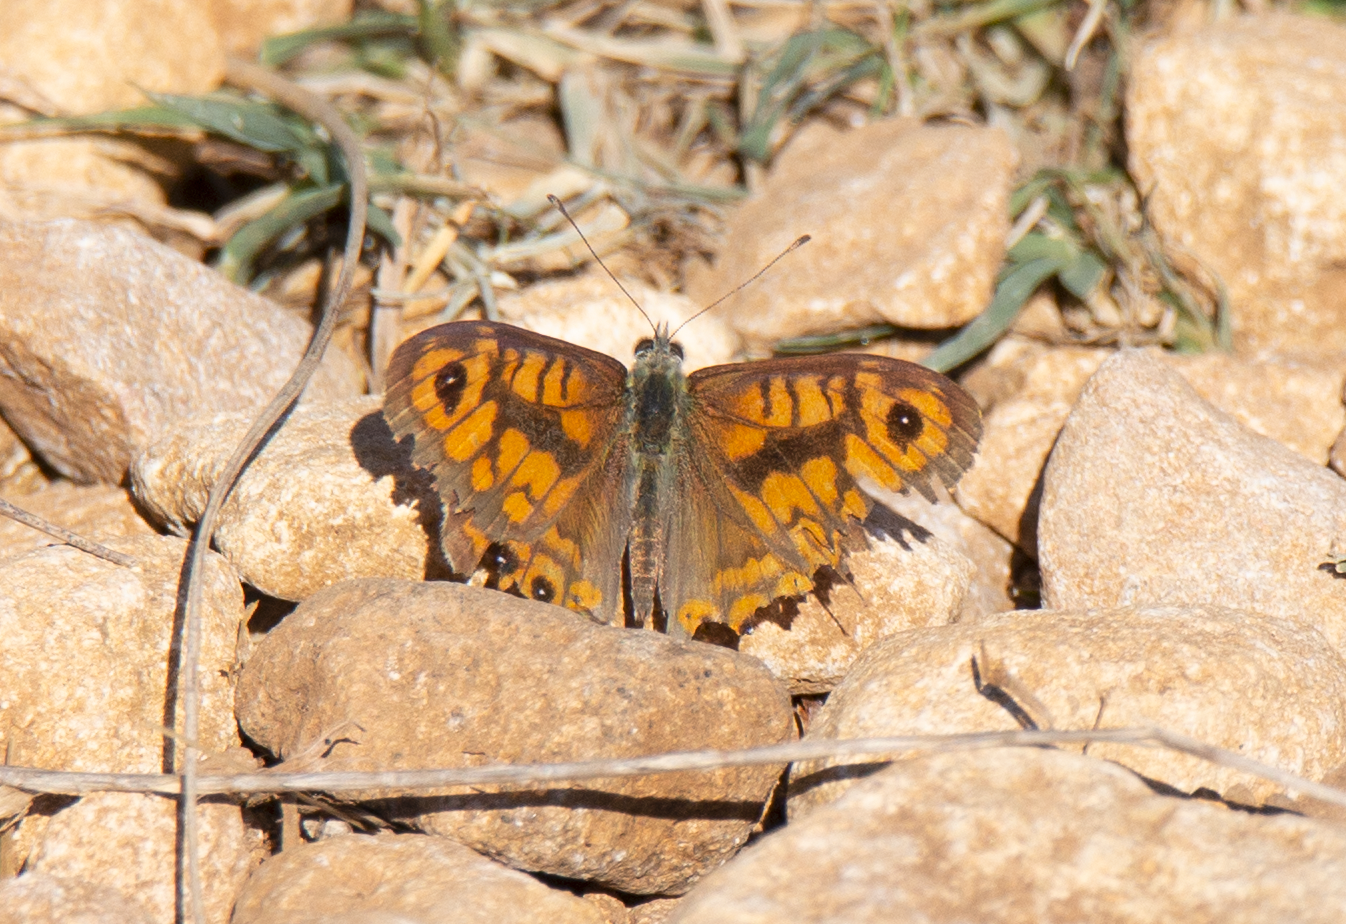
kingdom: Animalia
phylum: Arthropoda
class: Insecta
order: Lepidoptera
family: Nymphalidae
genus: Pararge
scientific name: Pararge Lasiommata megera
